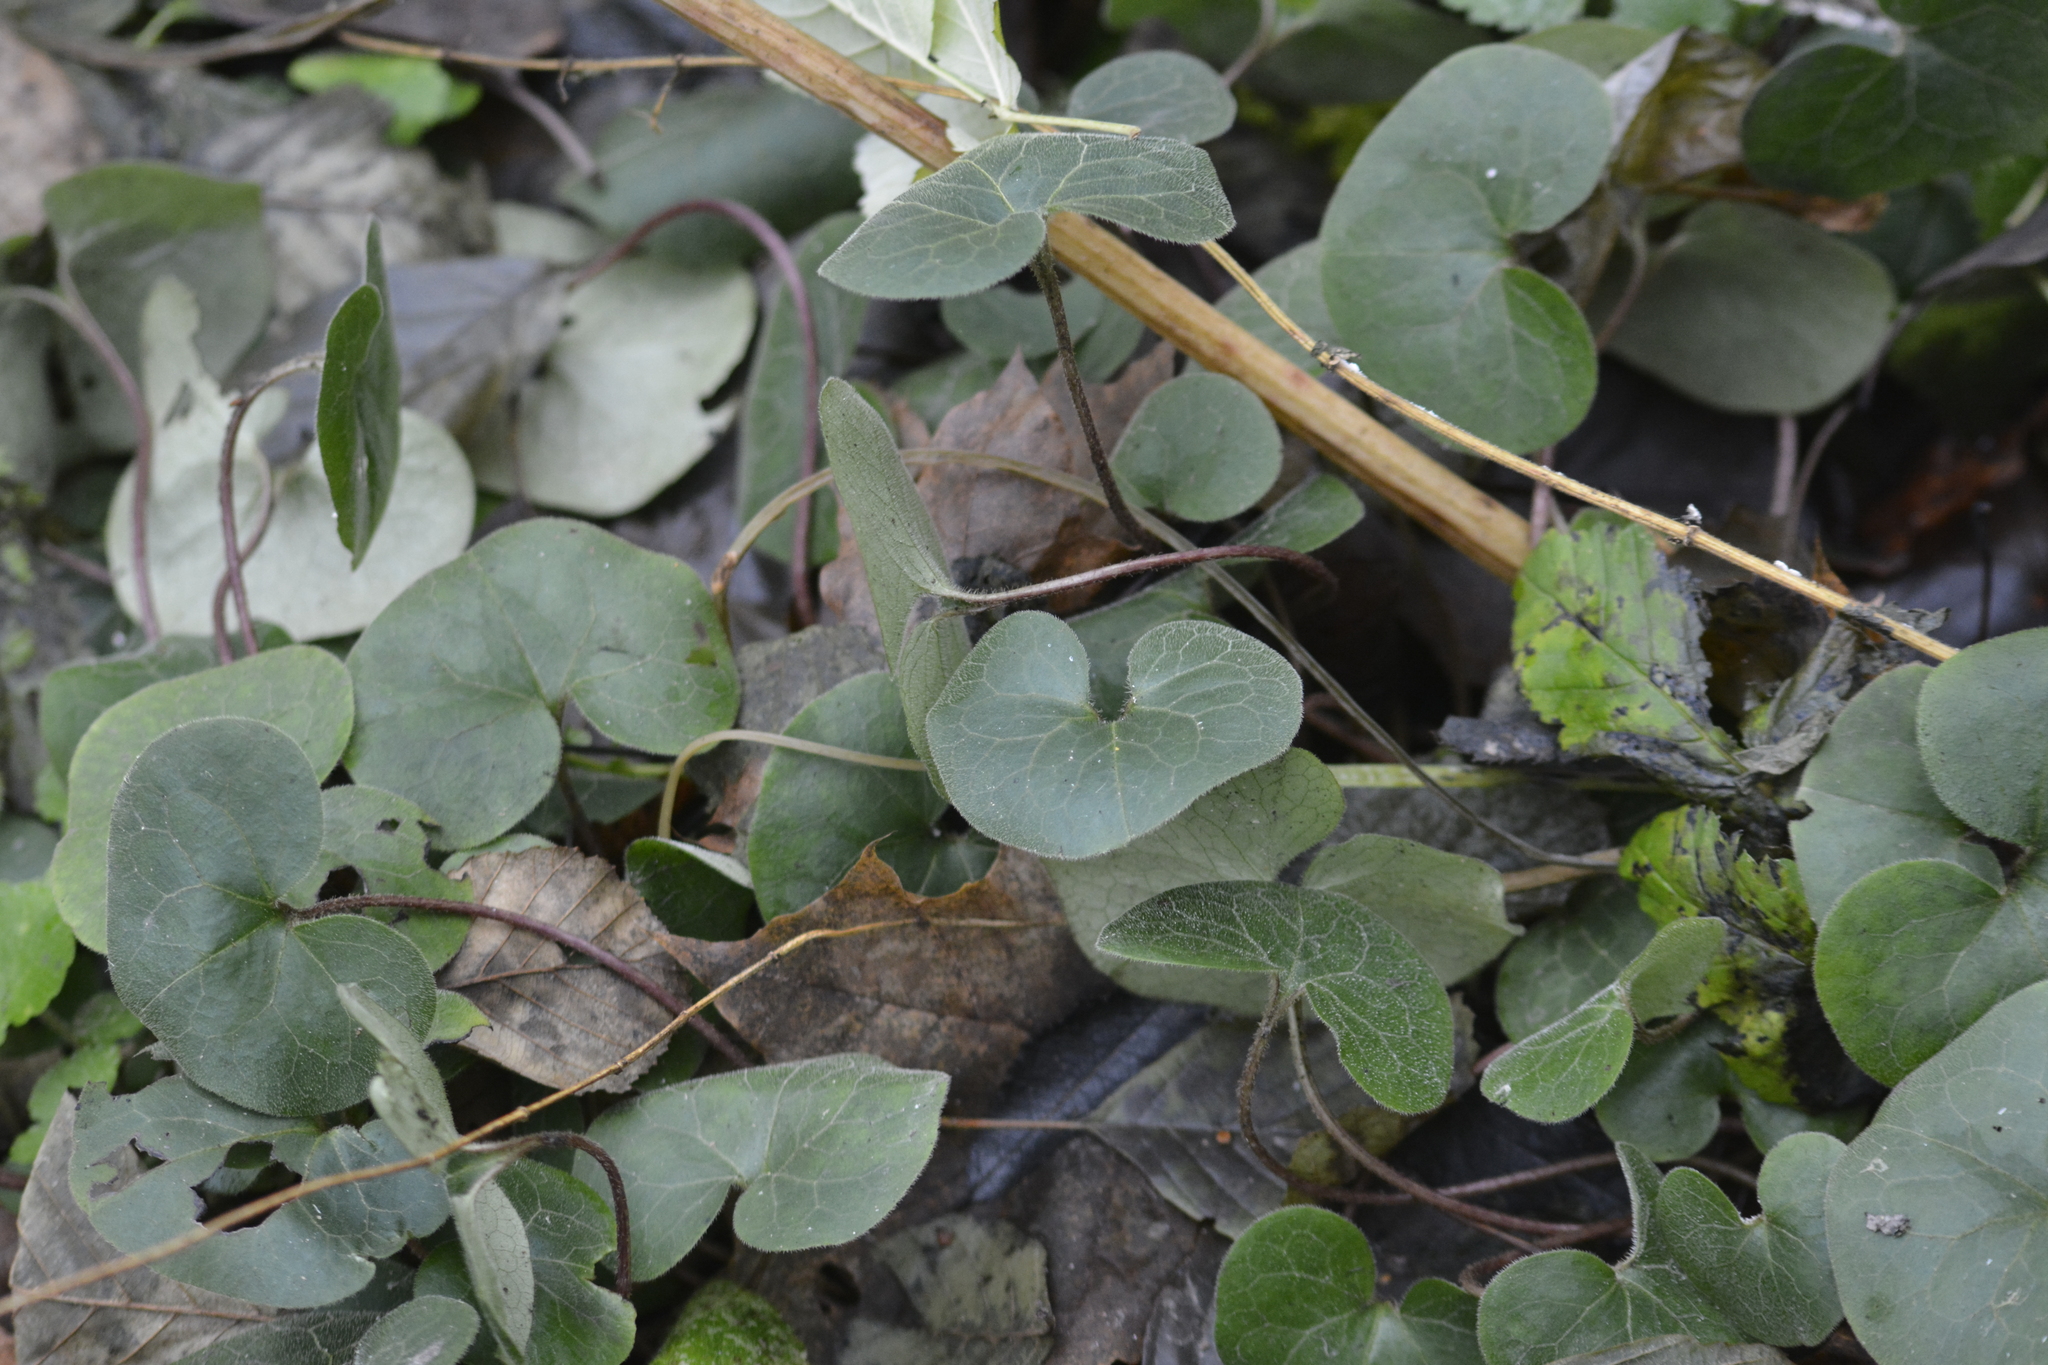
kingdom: Plantae
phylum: Tracheophyta
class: Magnoliopsida
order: Piperales
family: Aristolochiaceae
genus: Asarum
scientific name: Asarum europaeum
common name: Asarabacca
